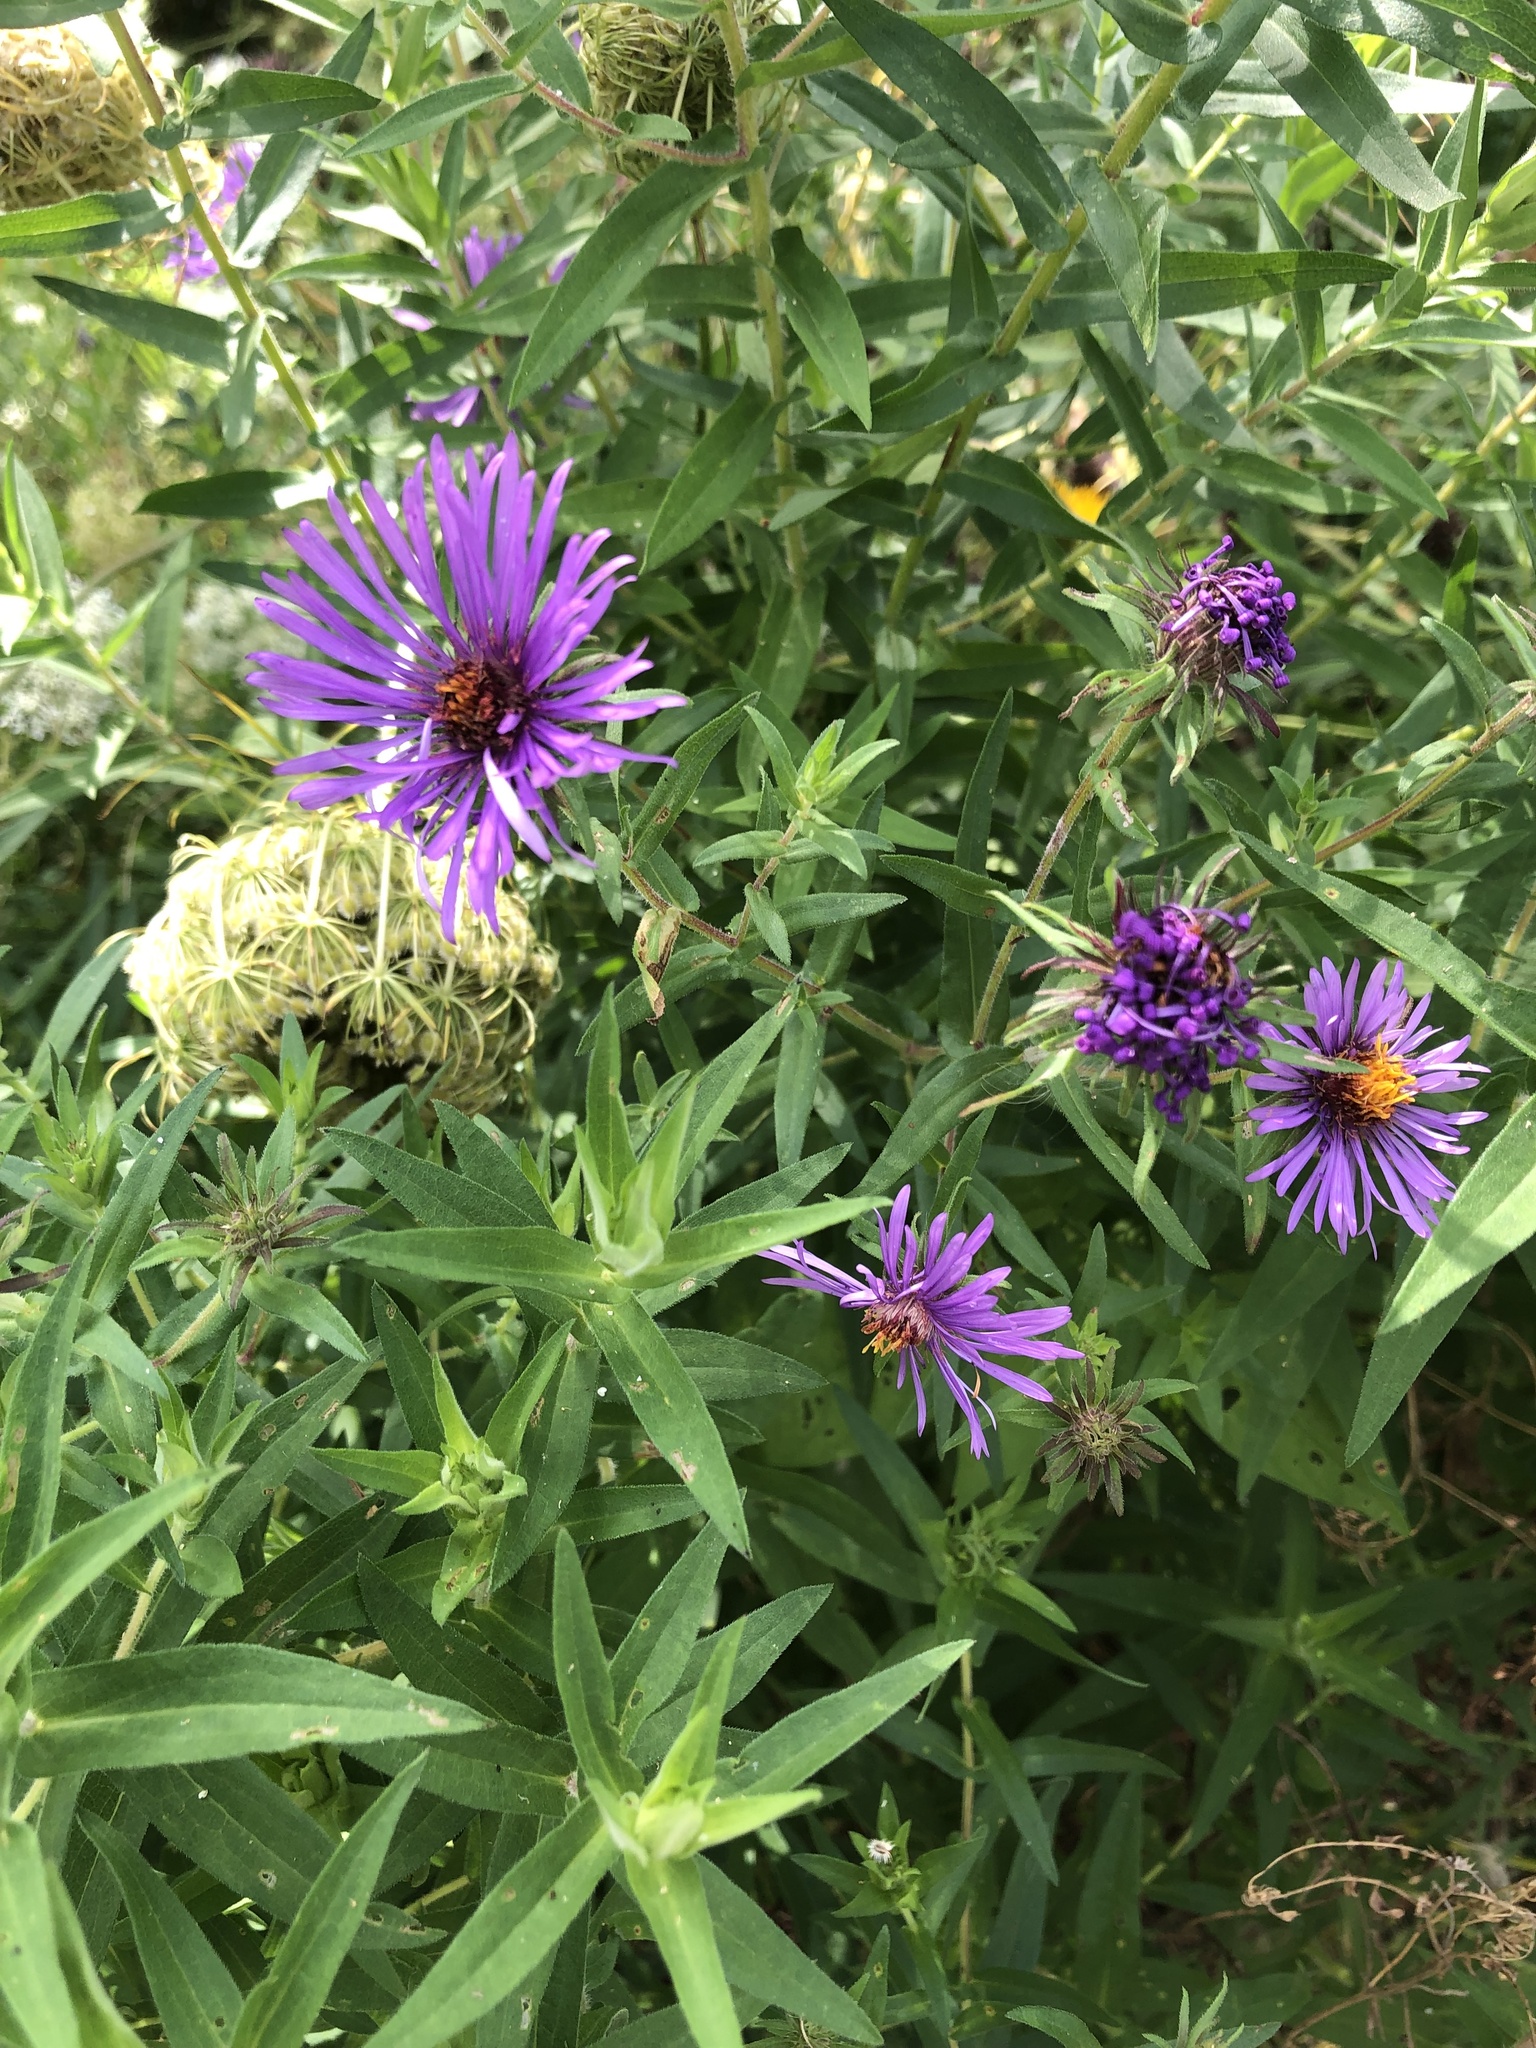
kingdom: Plantae
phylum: Tracheophyta
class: Magnoliopsida
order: Asterales
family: Asteraceae
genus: Symphyotrichum
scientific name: Symphyotrichum novae-angliae
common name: Michaelmas daisy
